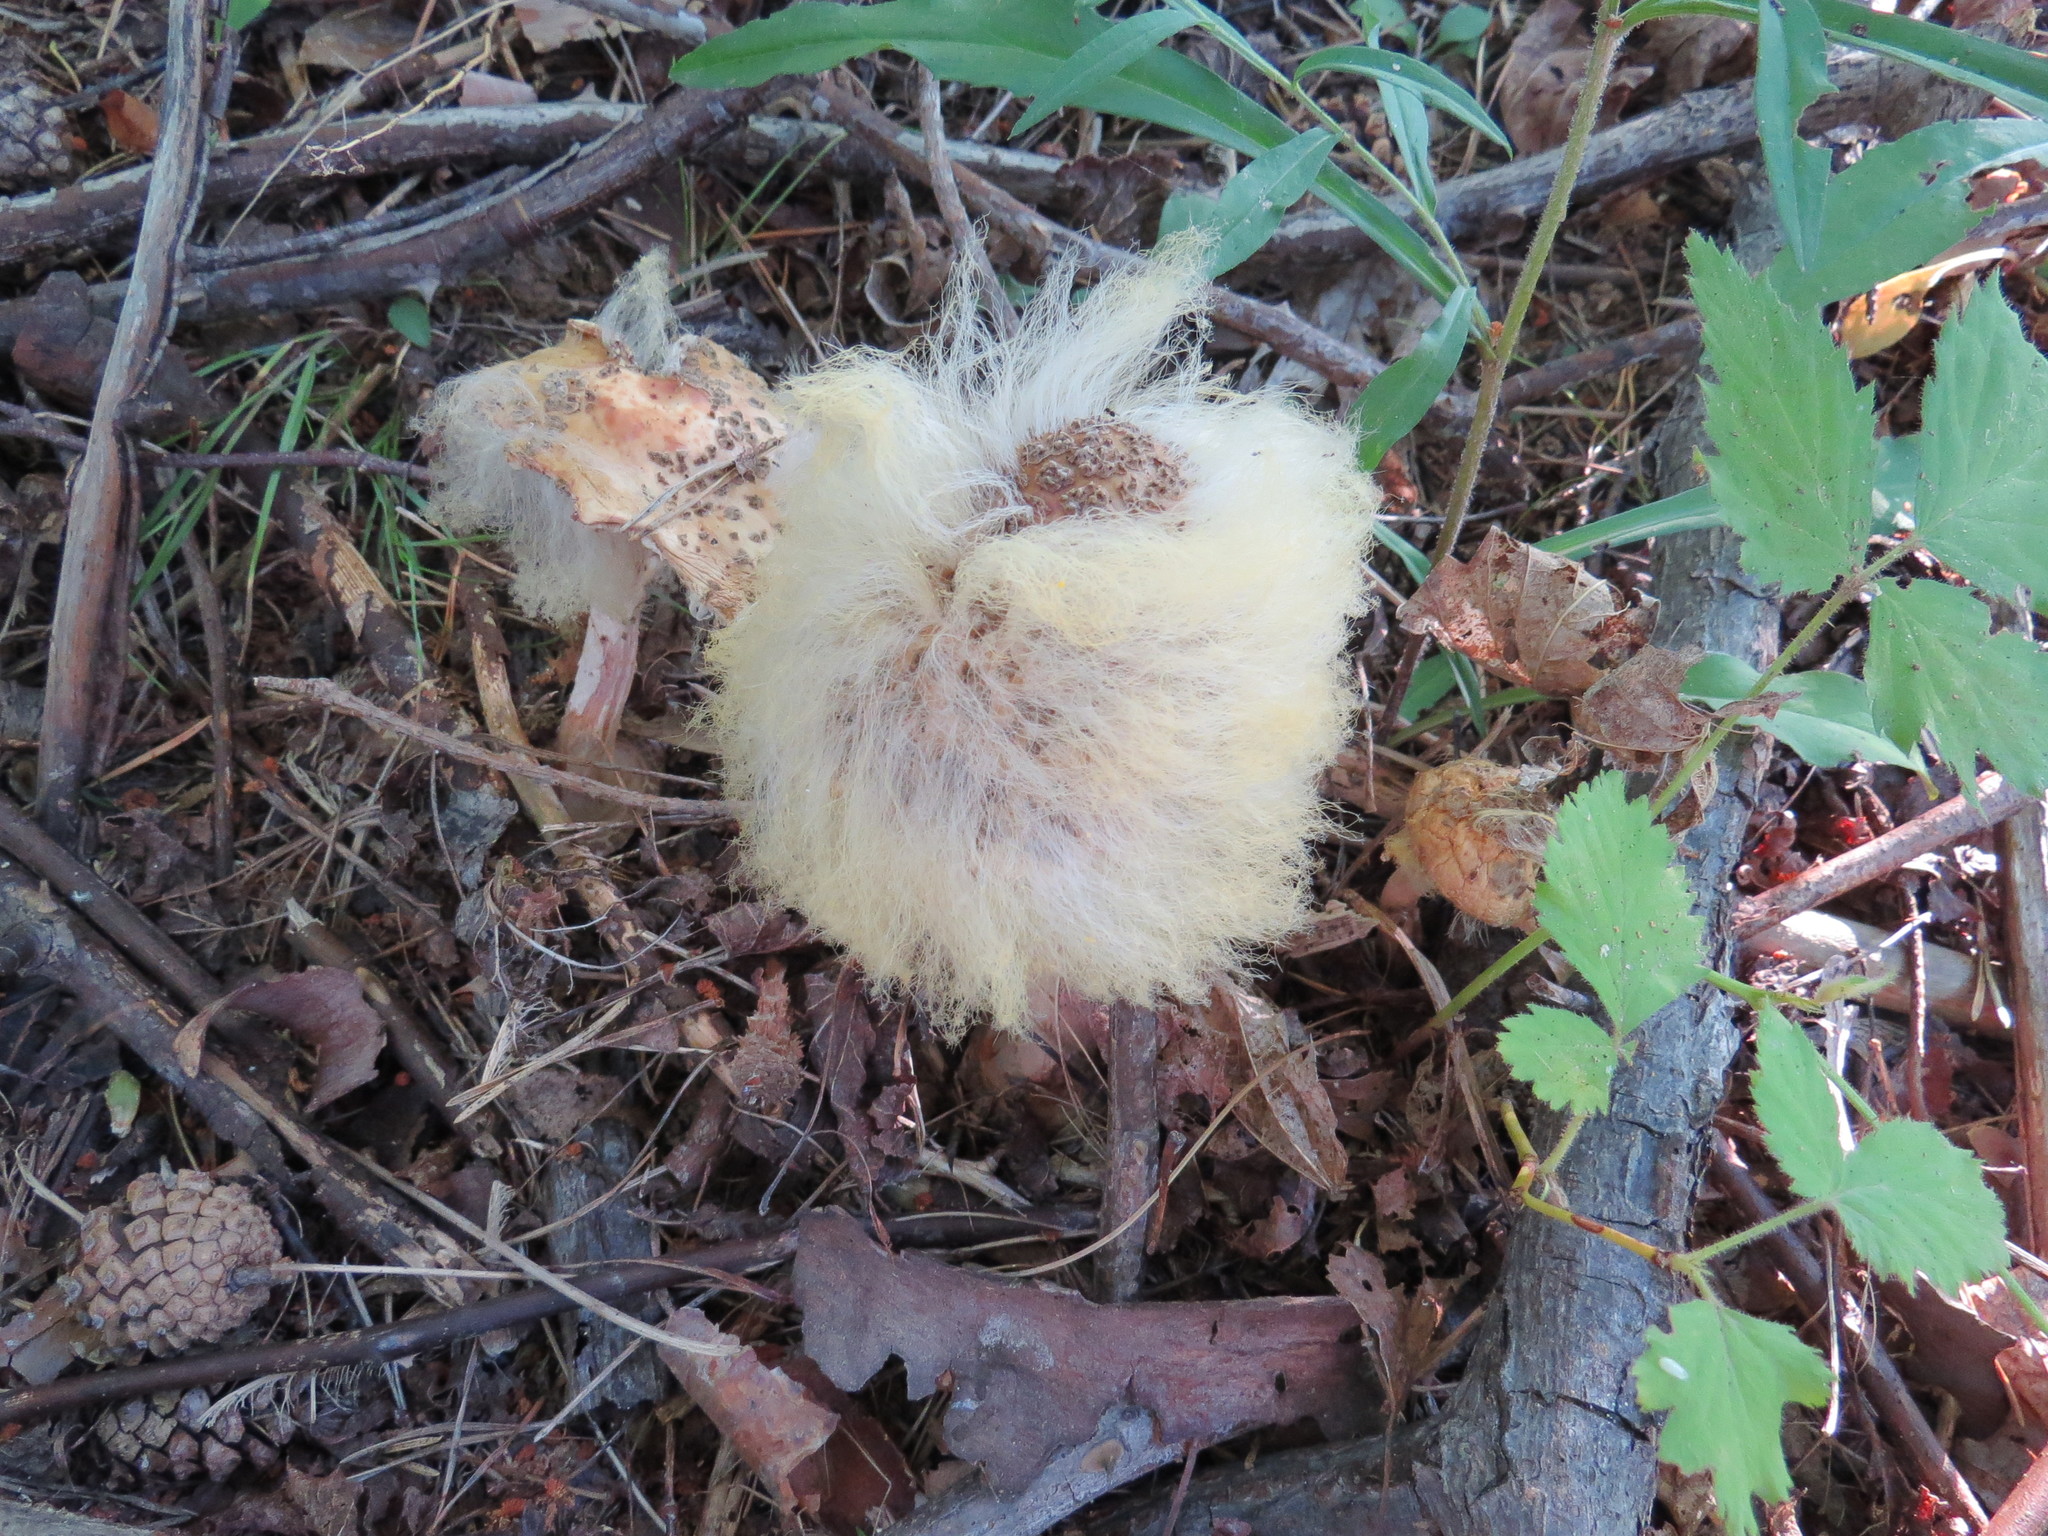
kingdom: Fungi
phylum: Mucoromycota
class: Mucoromycetes
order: Mucorales
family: Rhizopodaceae
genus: Syzygites
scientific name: Syzygites megalocarpus
